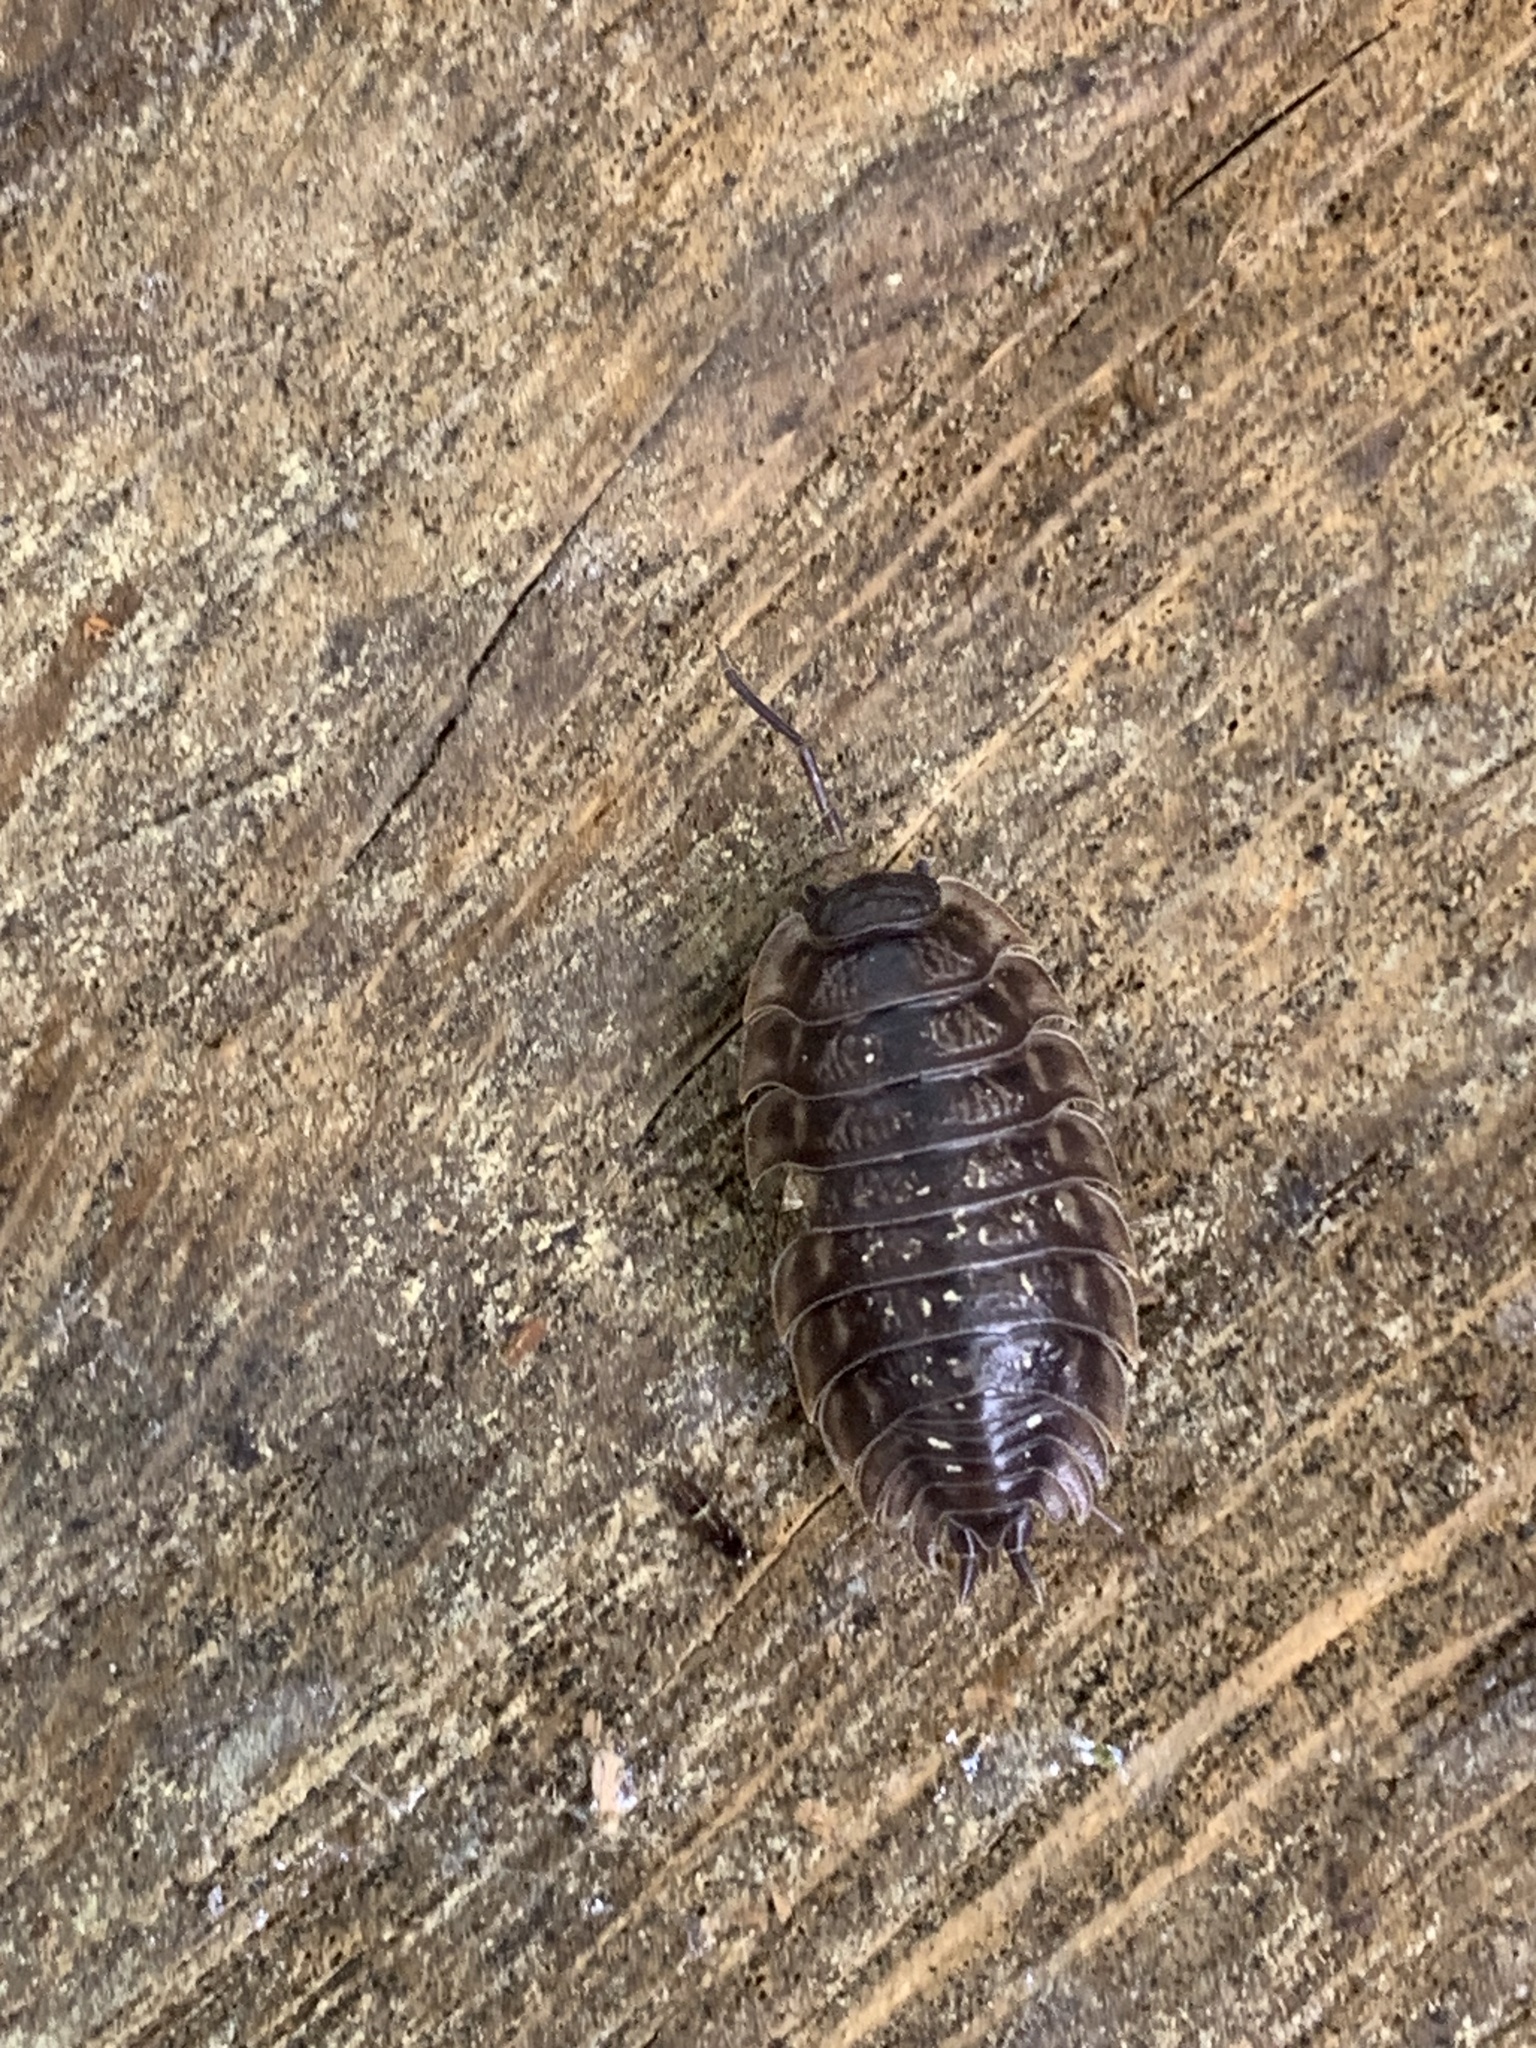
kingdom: Animalia
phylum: Arthropoda
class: Malacostraca
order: Isopoda
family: Oniscidae
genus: Oniscus
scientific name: Oniscus asellus
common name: Common shiny woodlouse
